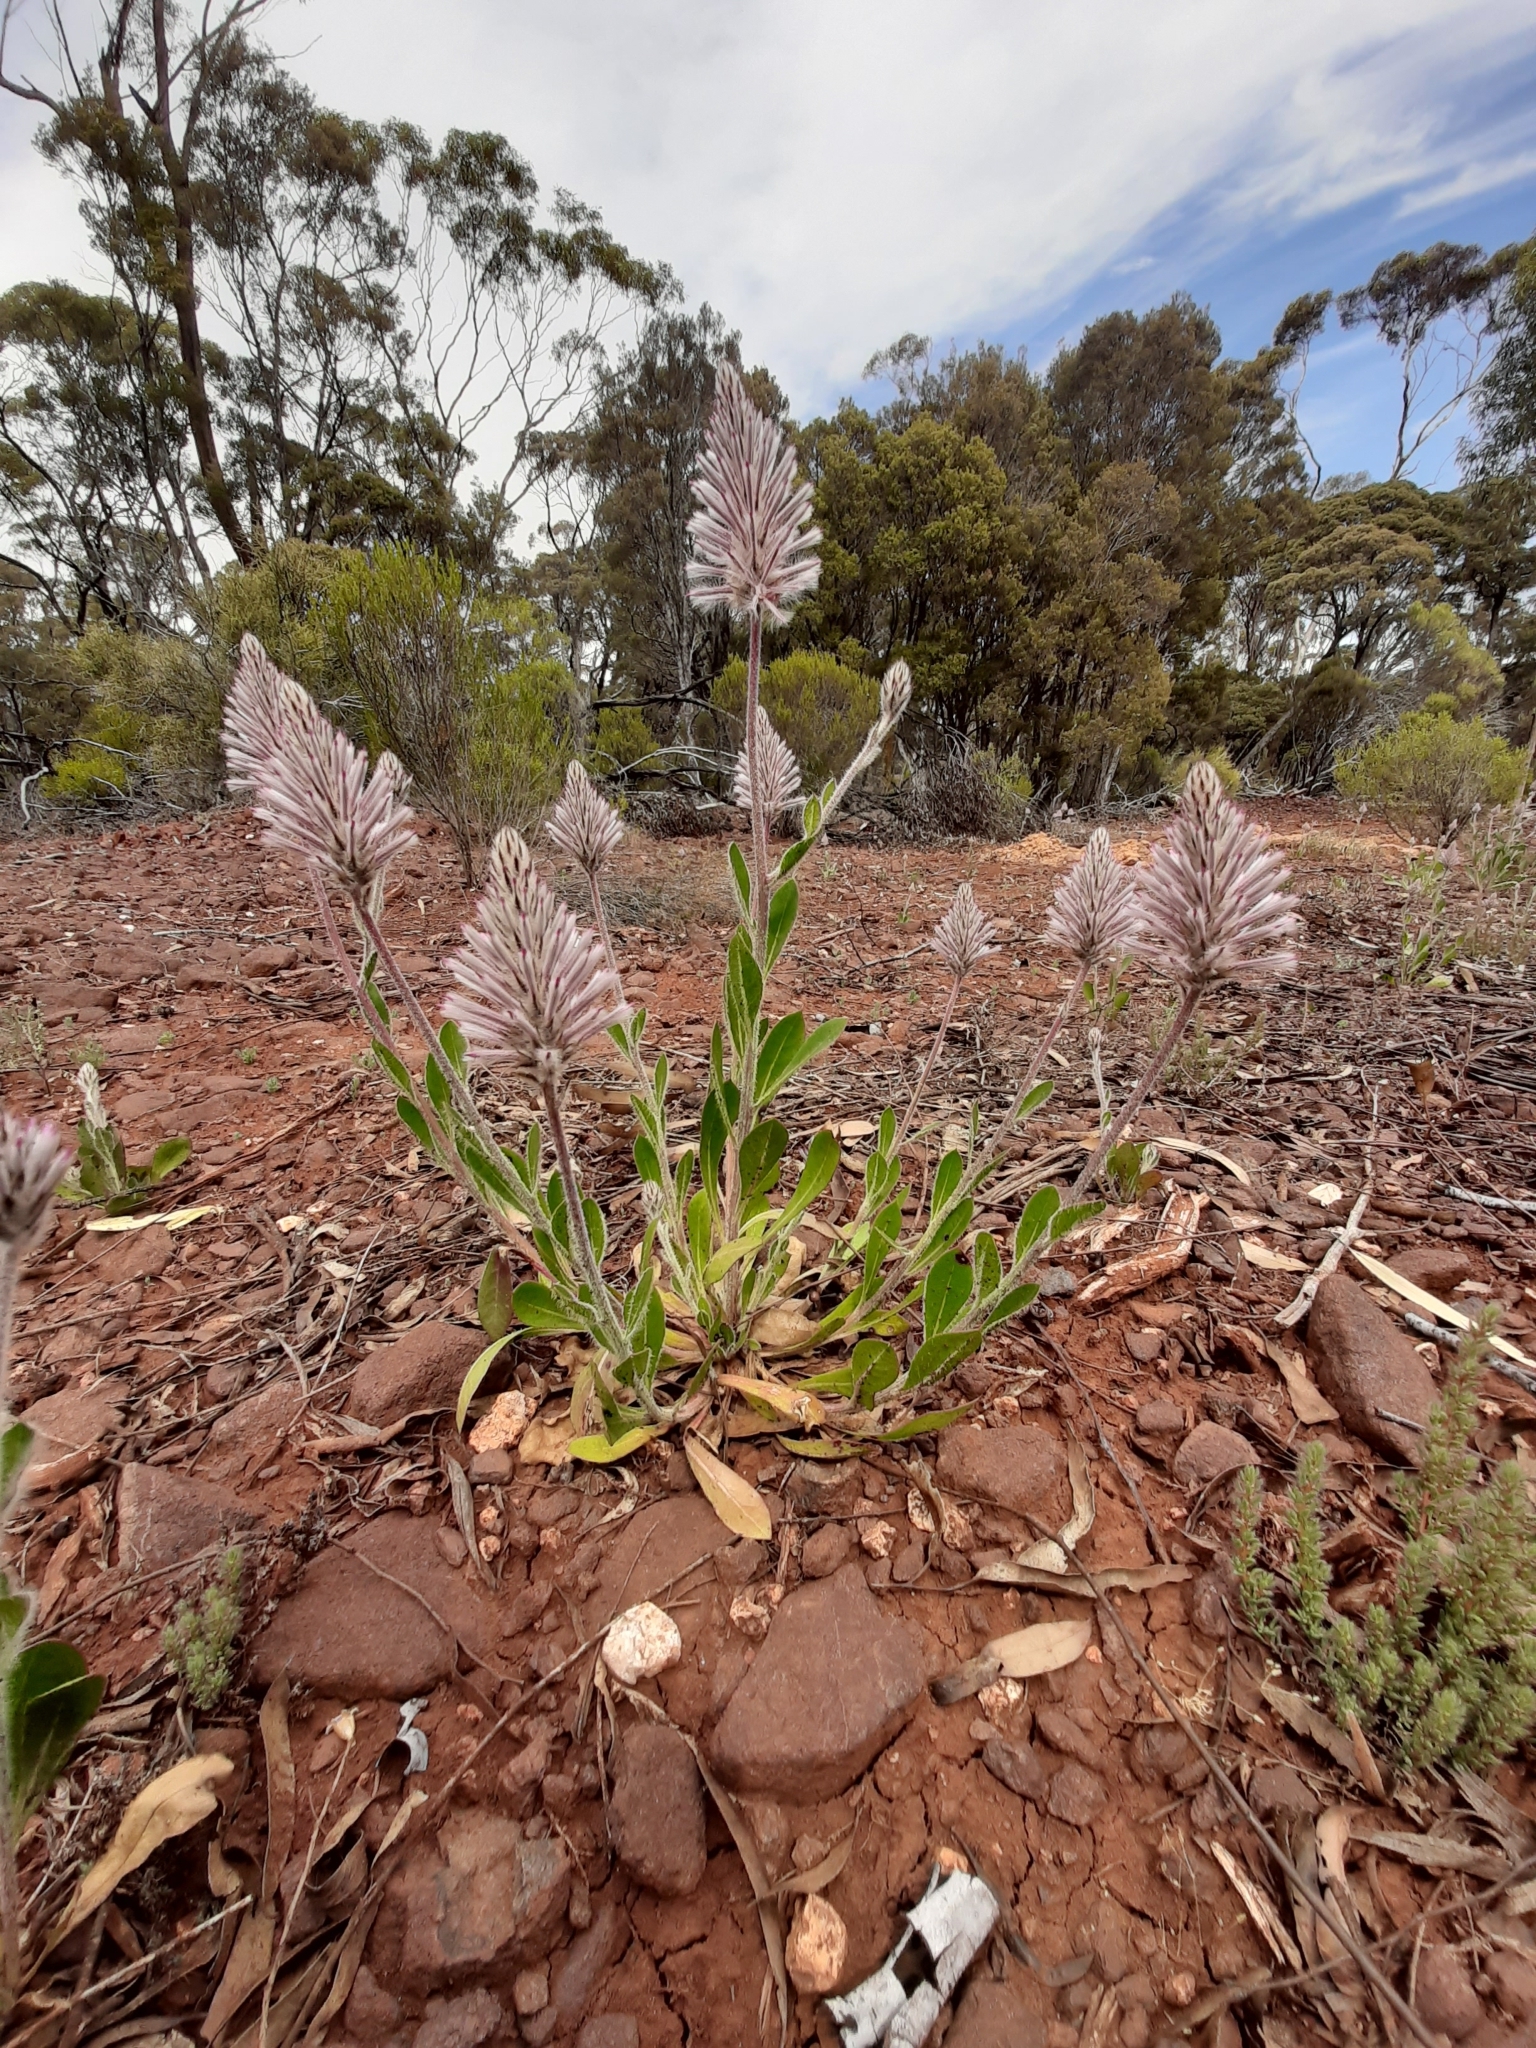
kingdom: Plantae
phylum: Tracheophyta
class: Magnoliopsida
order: Caryophyllales
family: Amaranthaceae
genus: Ptilotus
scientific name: Ptilotus exaltatus
